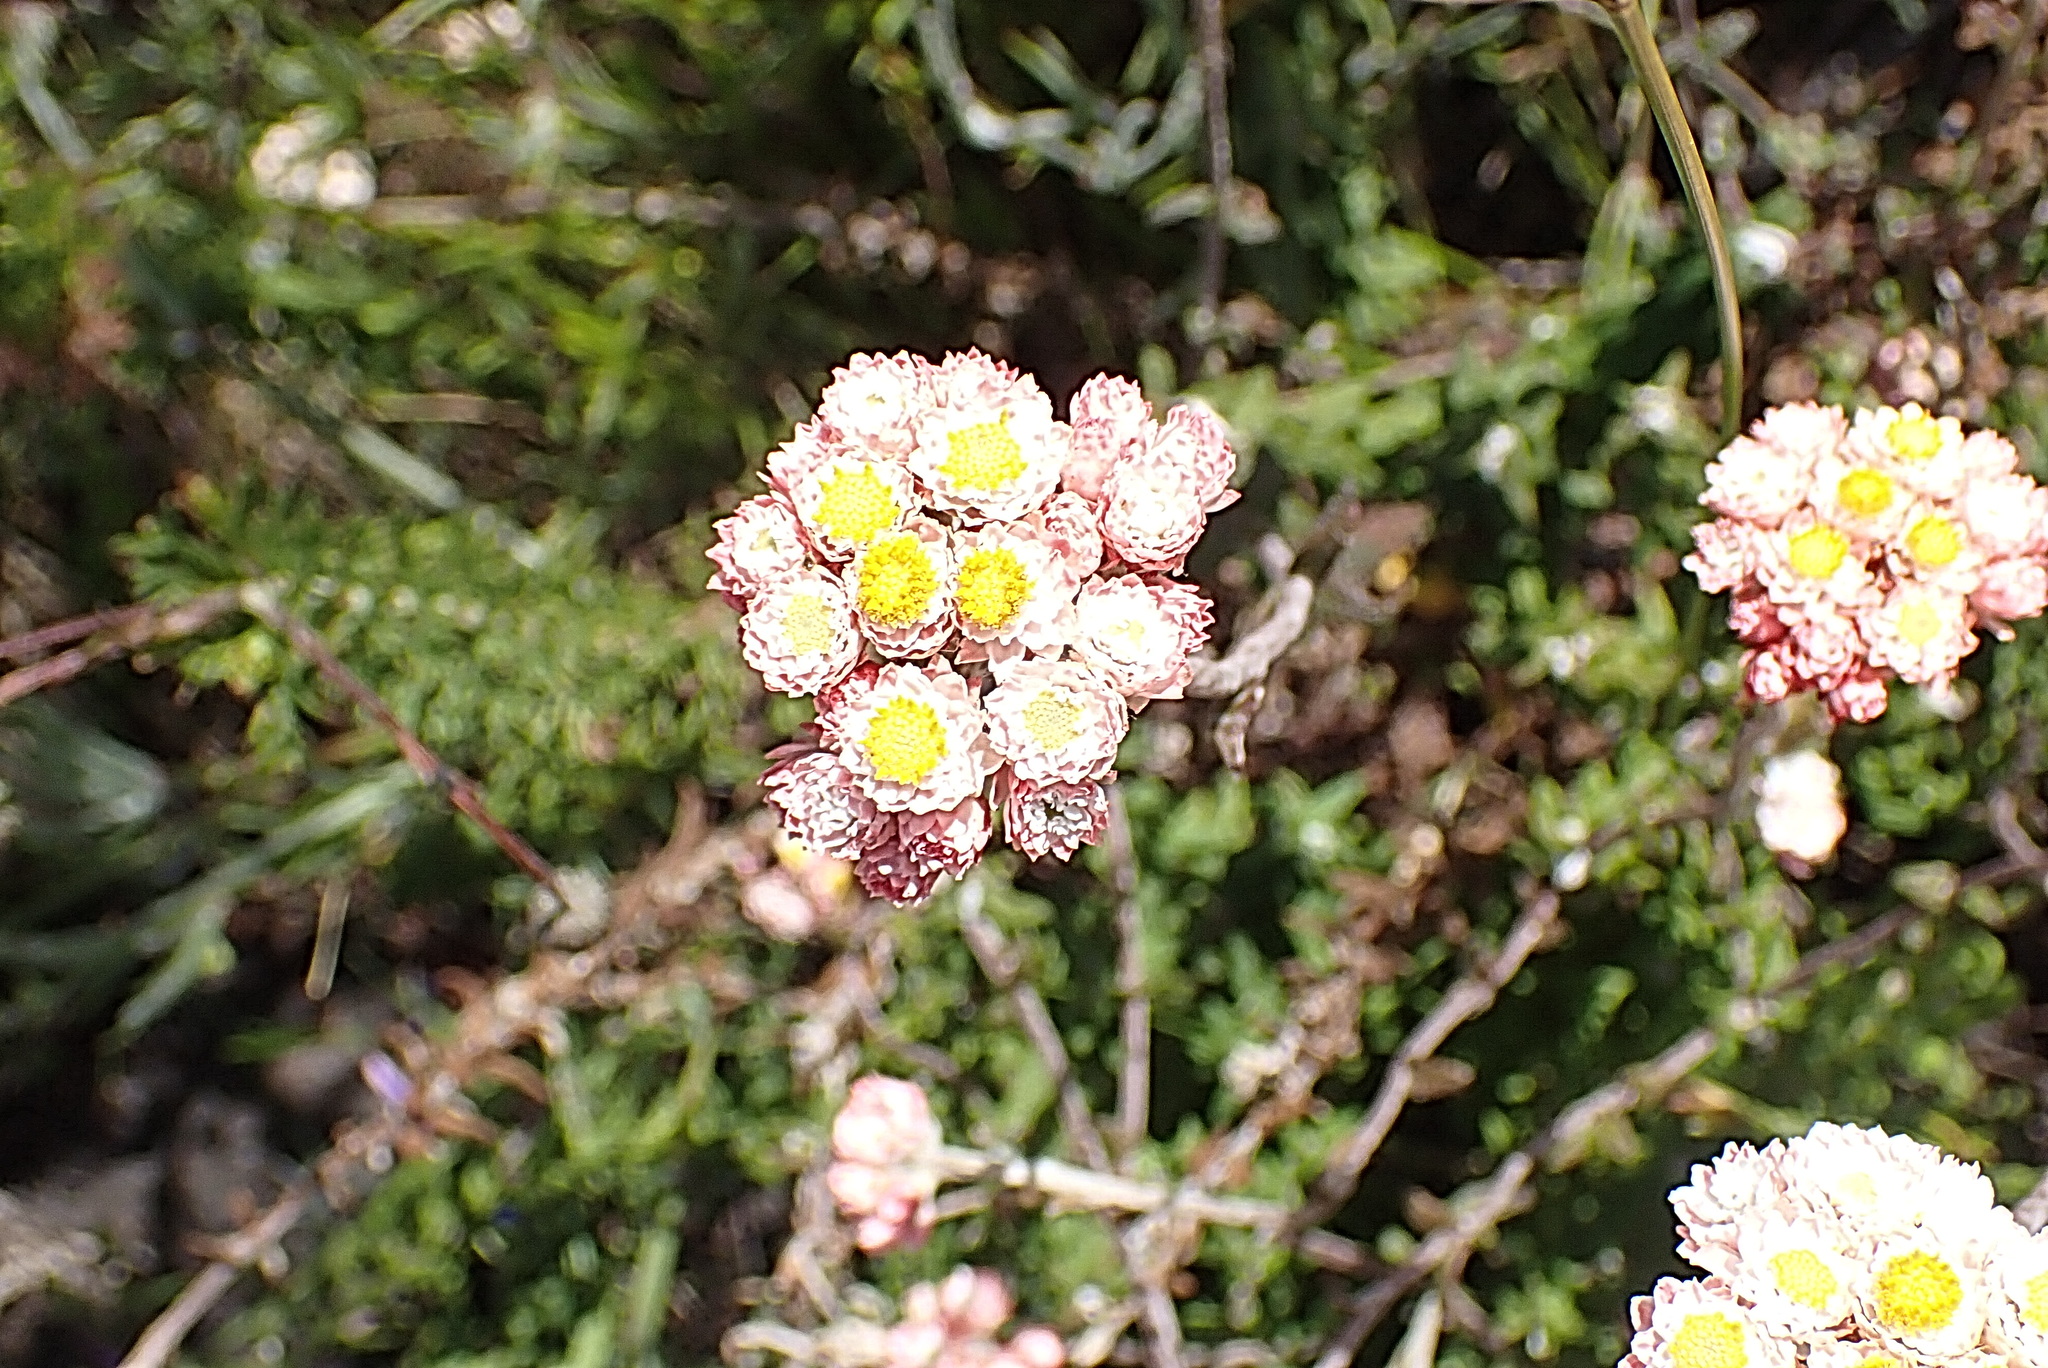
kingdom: Plantae
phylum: Tracheophyta
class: Magnoliopsida
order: Asterales
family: Asteraceae
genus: Helichrysum
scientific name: Helichrysum felinum
